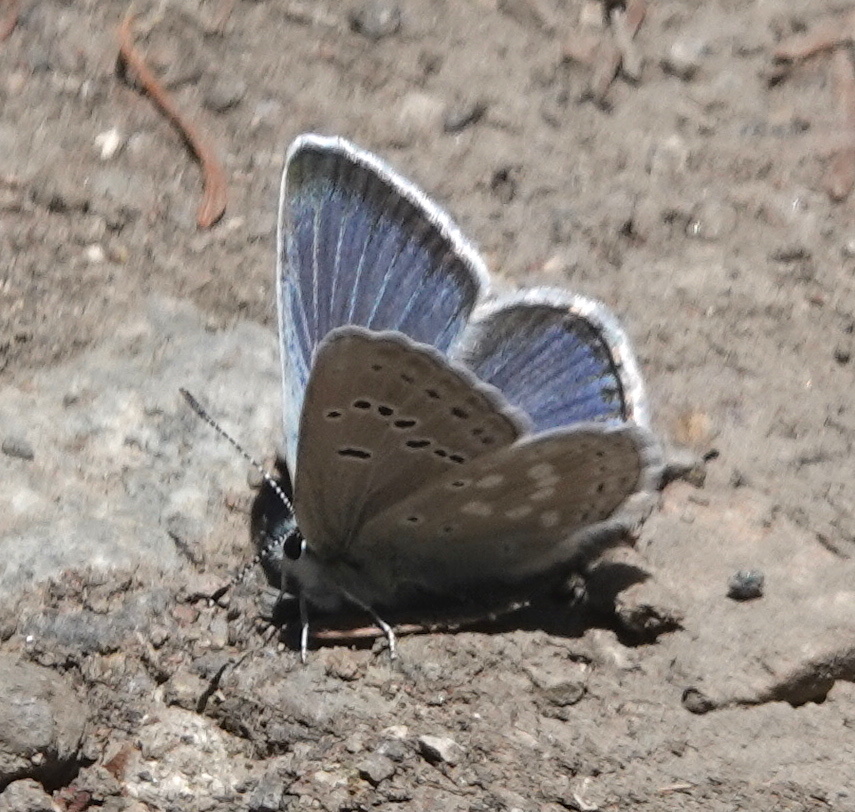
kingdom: Animalia
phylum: Arthropoda
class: Insecta
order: Lepidoptera
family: Lycaenidae
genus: Icaricia
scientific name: Icaricia icarioides
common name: Boisduval's blue
